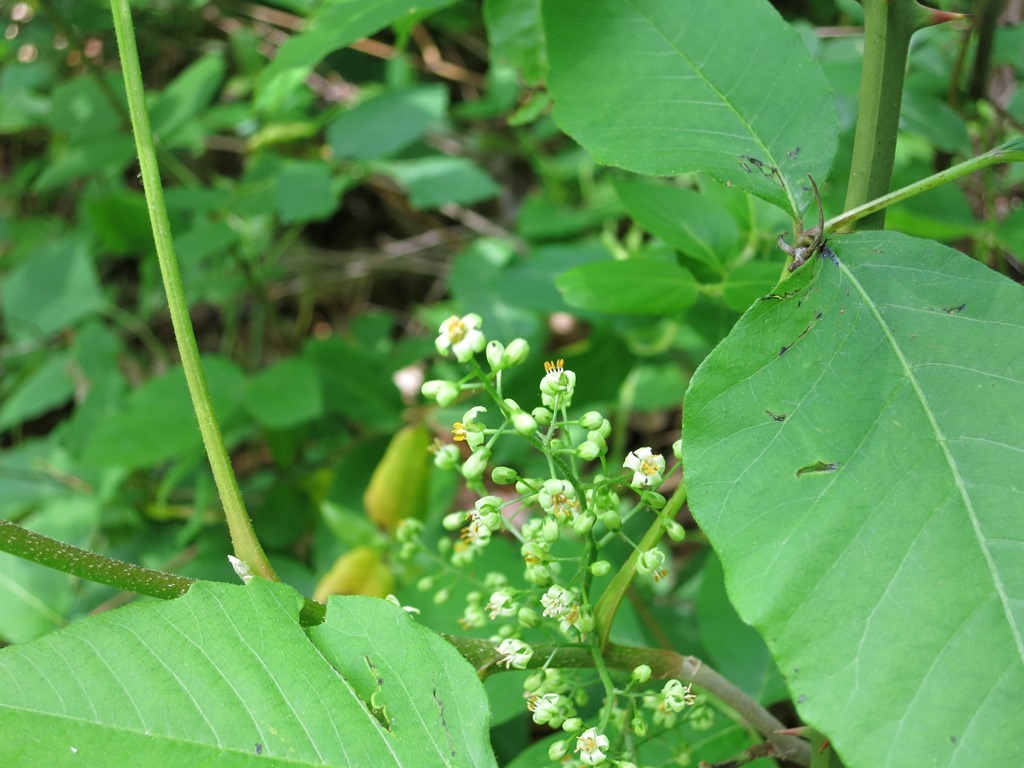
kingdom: Plantae
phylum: Tracheophyta
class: Magnoliopsida
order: Sapindales
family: Anacardiaceae
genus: Toxicodendron
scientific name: Toxicodendron radicans
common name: Poison ivy
